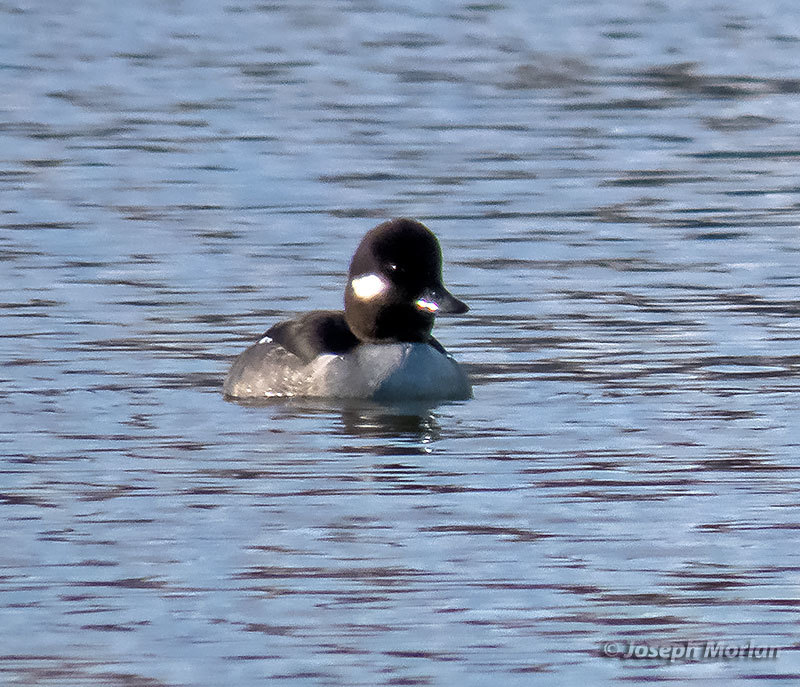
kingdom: Animalia
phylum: Chordata
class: Aves
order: Anseriformes
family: Anatidae
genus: Bucephala
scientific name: Bucephala albeola
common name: Bufflehead
